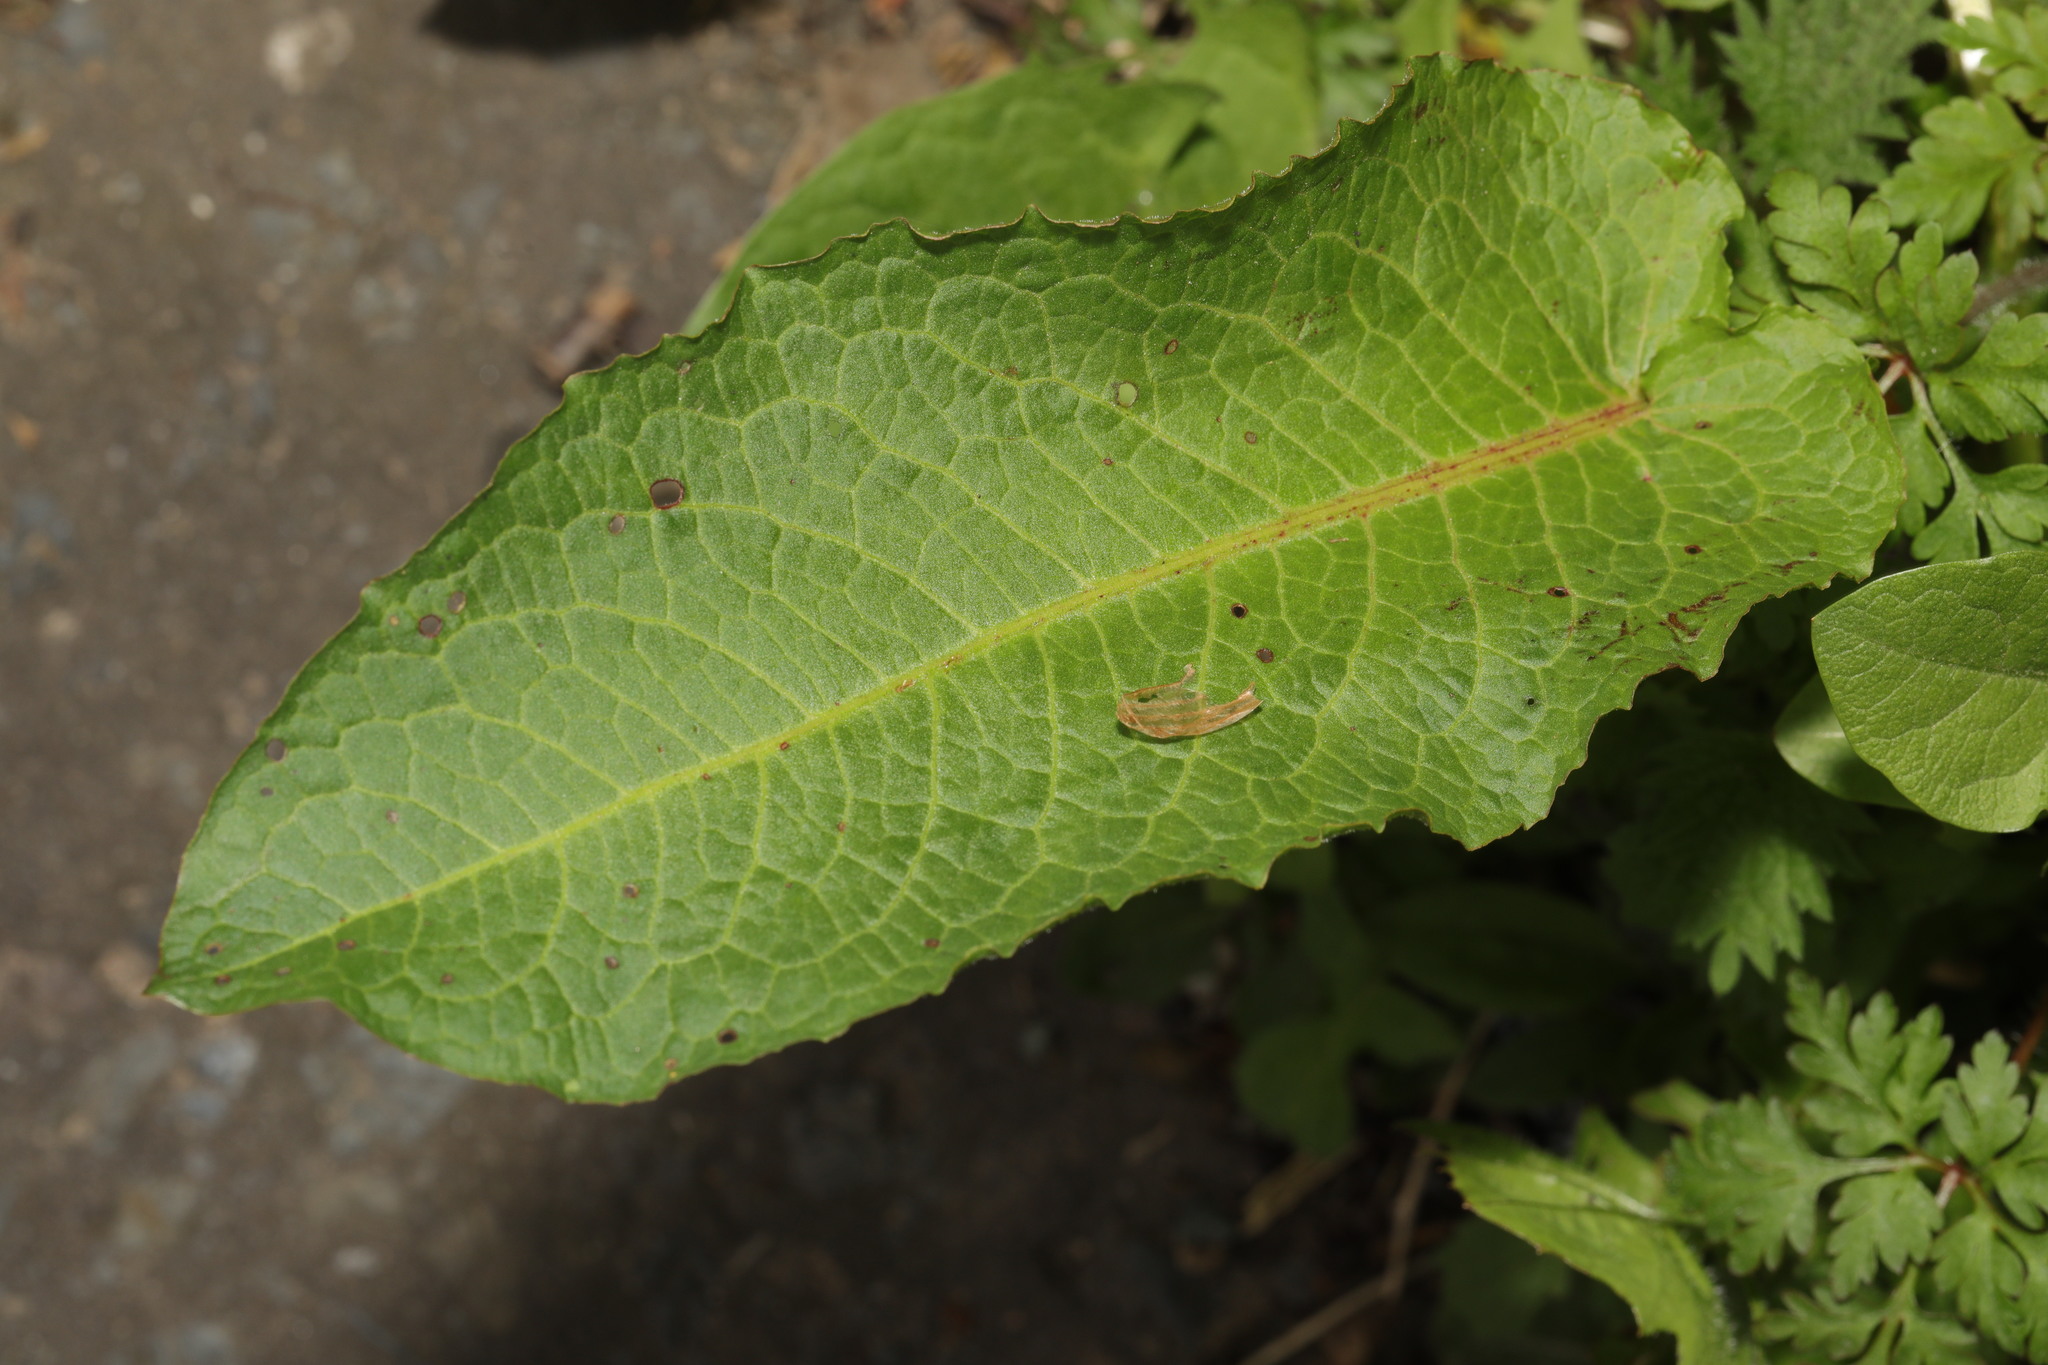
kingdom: Plantae
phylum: Tracheophyta
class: Magnoliopsida
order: Caryophyllales
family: Polygonaceae
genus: Rumex
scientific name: Rumex obtusifolius
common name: Bitter dock
